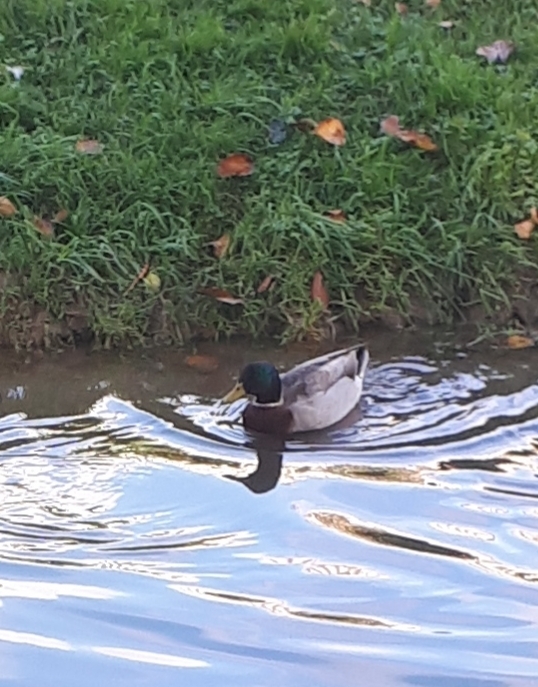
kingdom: Animalia
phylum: Chordata
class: Aves
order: Anseriformes
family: Anatidae
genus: Anas
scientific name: Anas platyrhynchos
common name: Mallard
